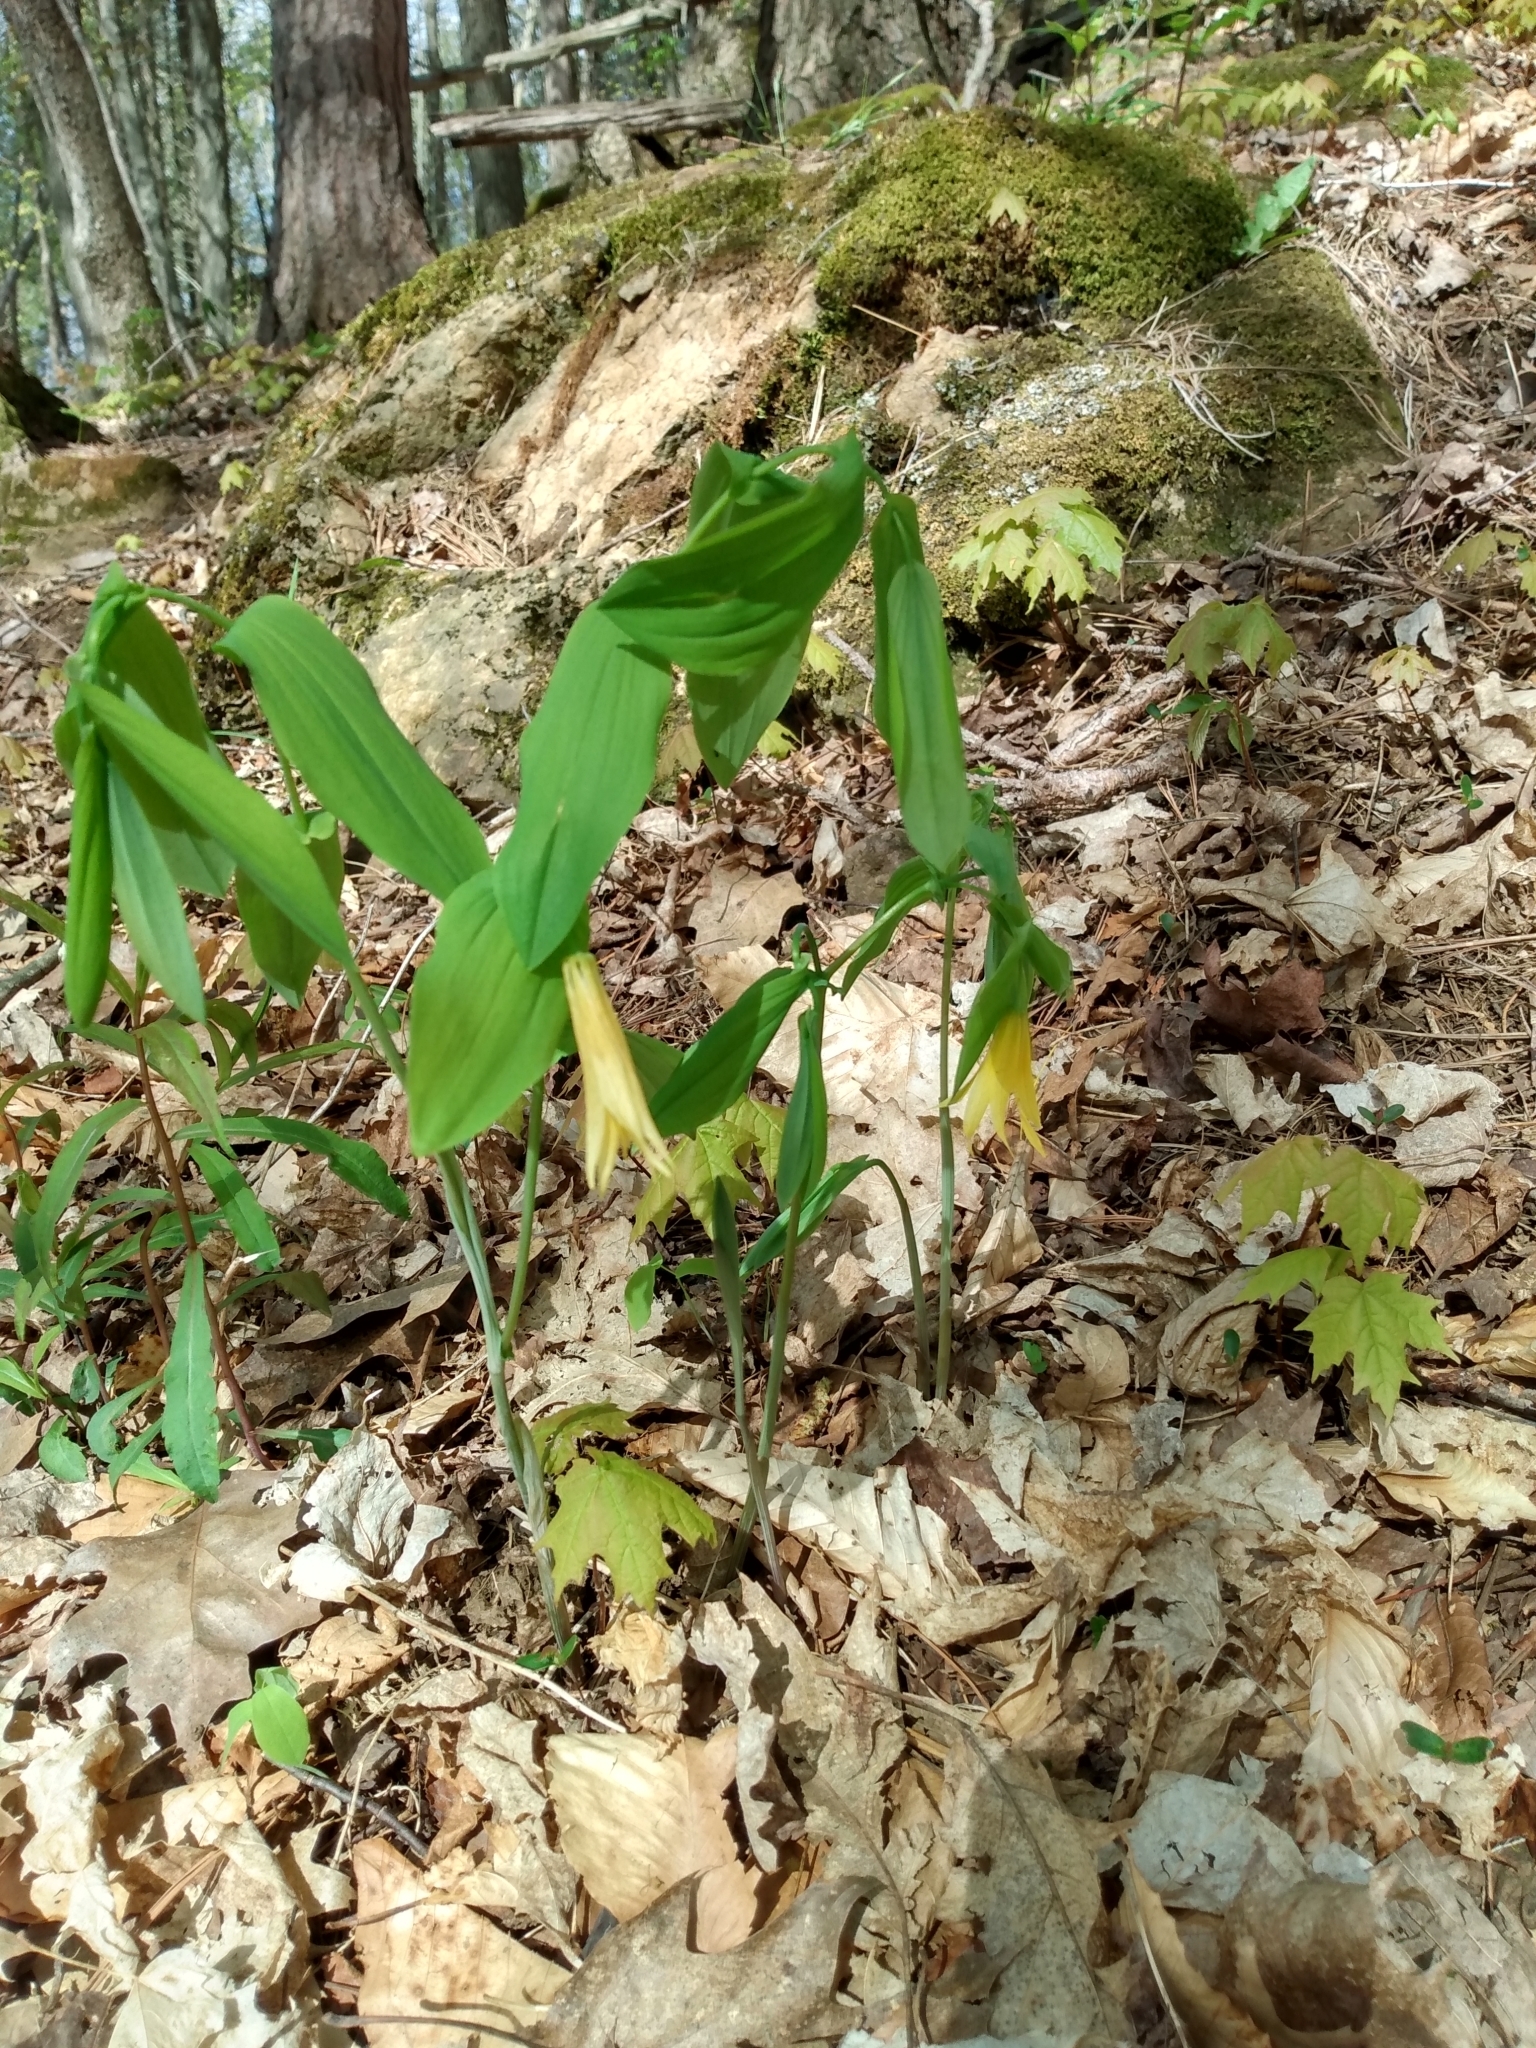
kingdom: Plantae
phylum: Tracheophyta
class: Liliopsida
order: Liliales
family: Colchicaceae
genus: Uvularia
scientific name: Uvularia grandiflora
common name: Bellwort
